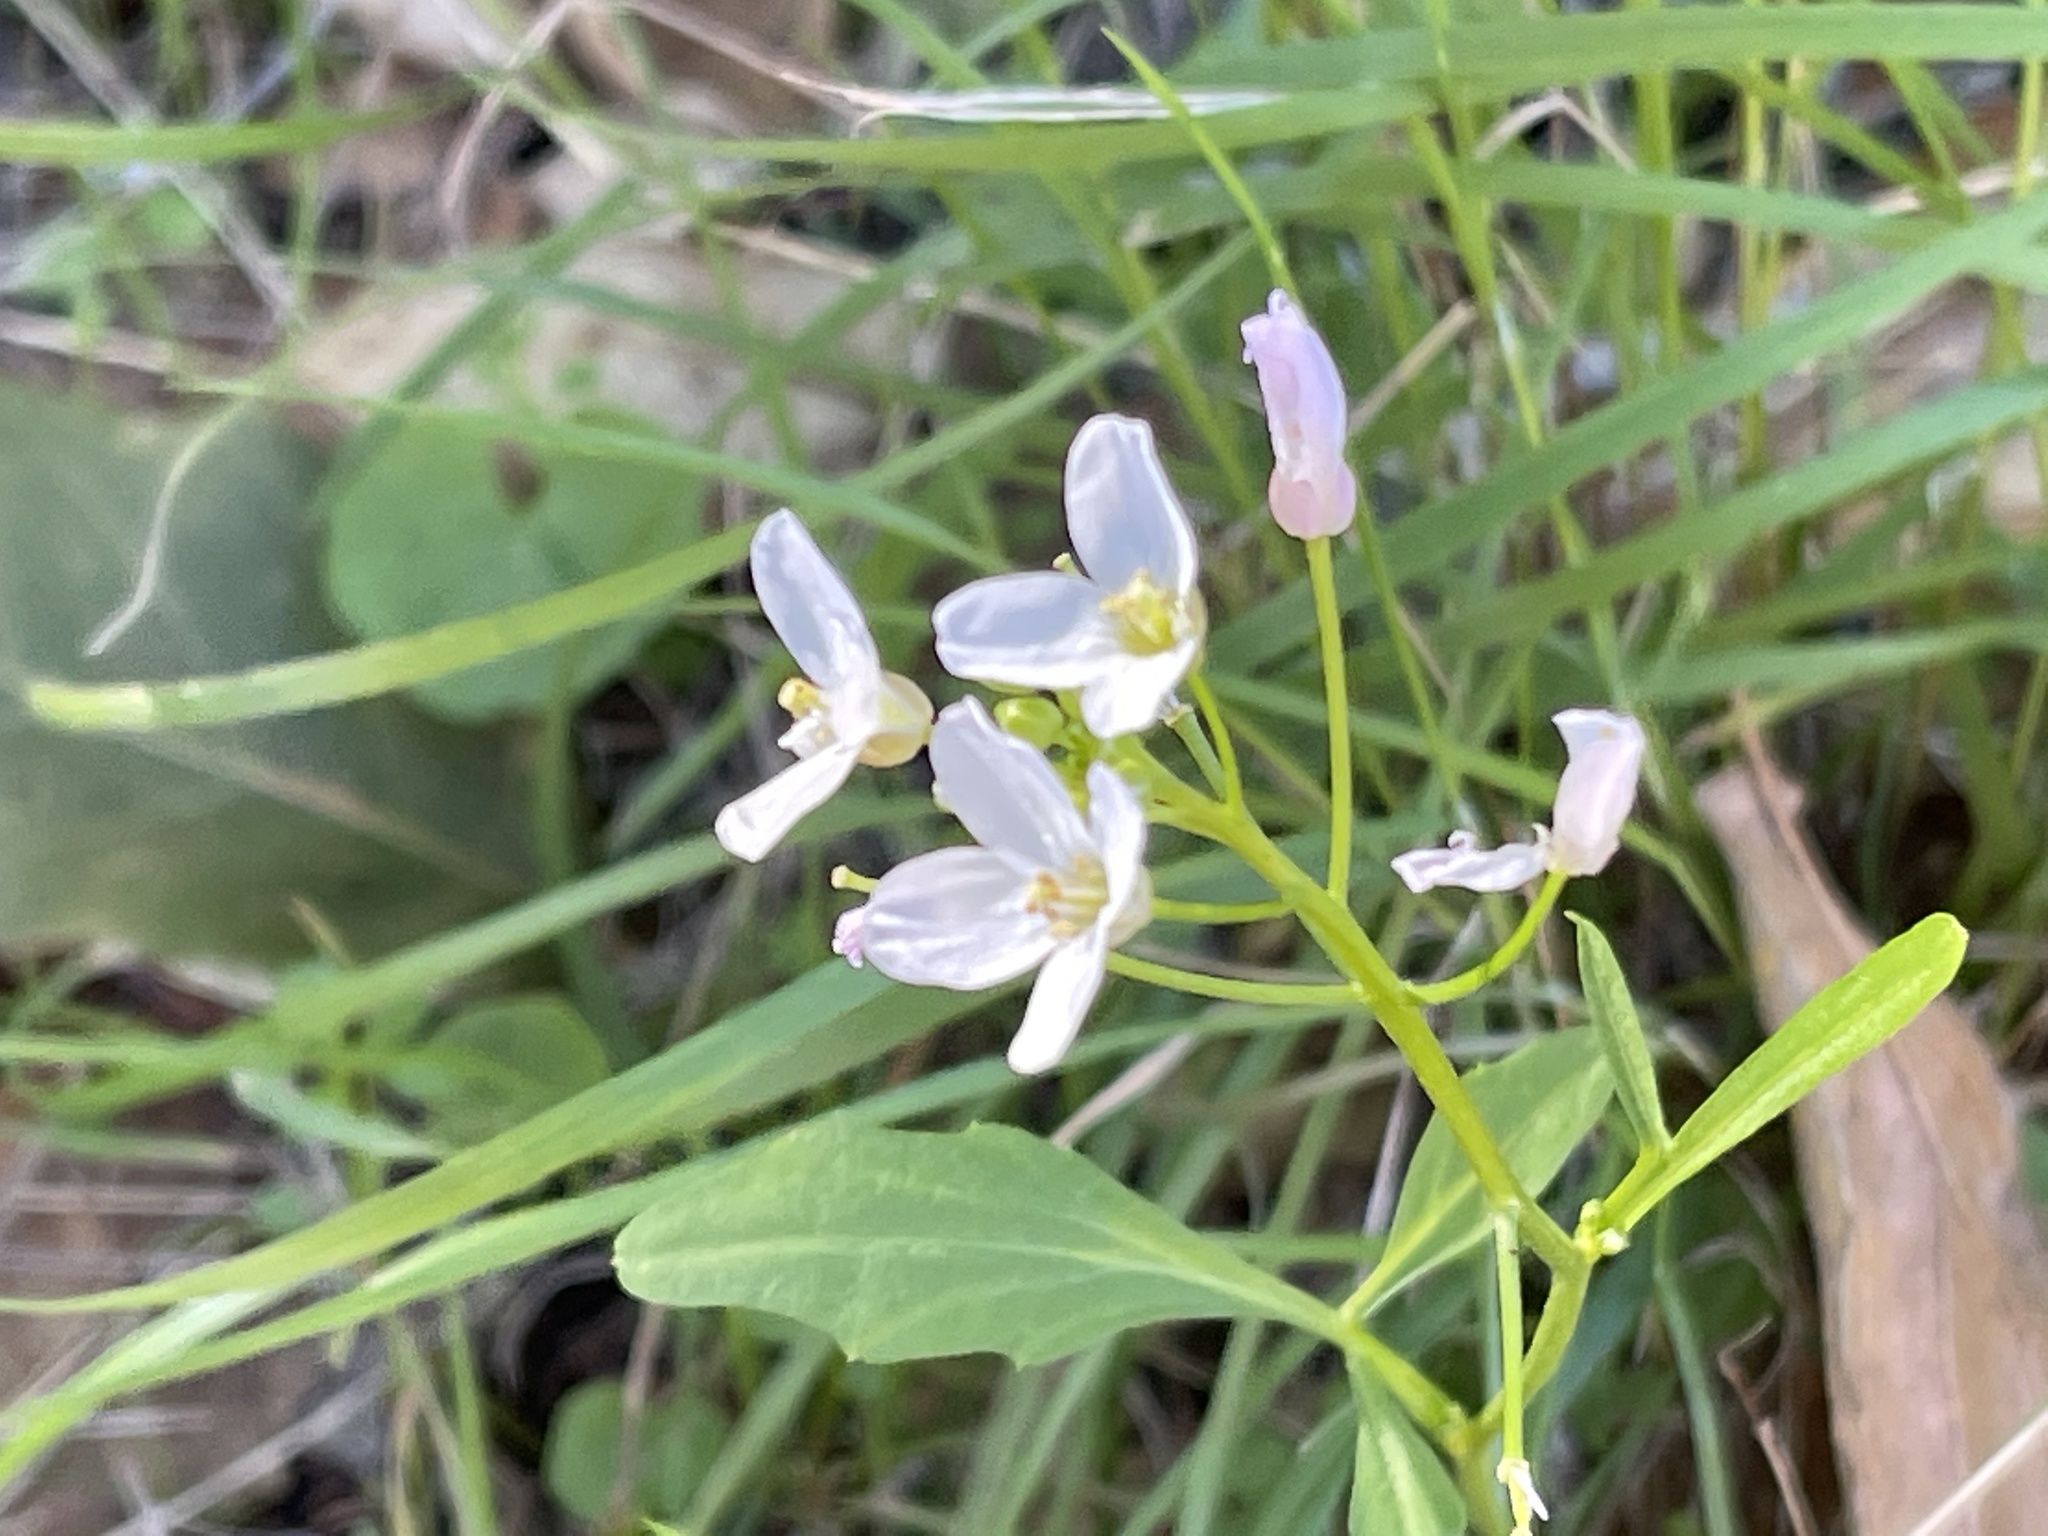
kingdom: Plantae
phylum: Tracheophyta
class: Magnoliopsida
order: Brassicales
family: Brassicaceae
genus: Cardamine
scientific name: Cardamine californica
